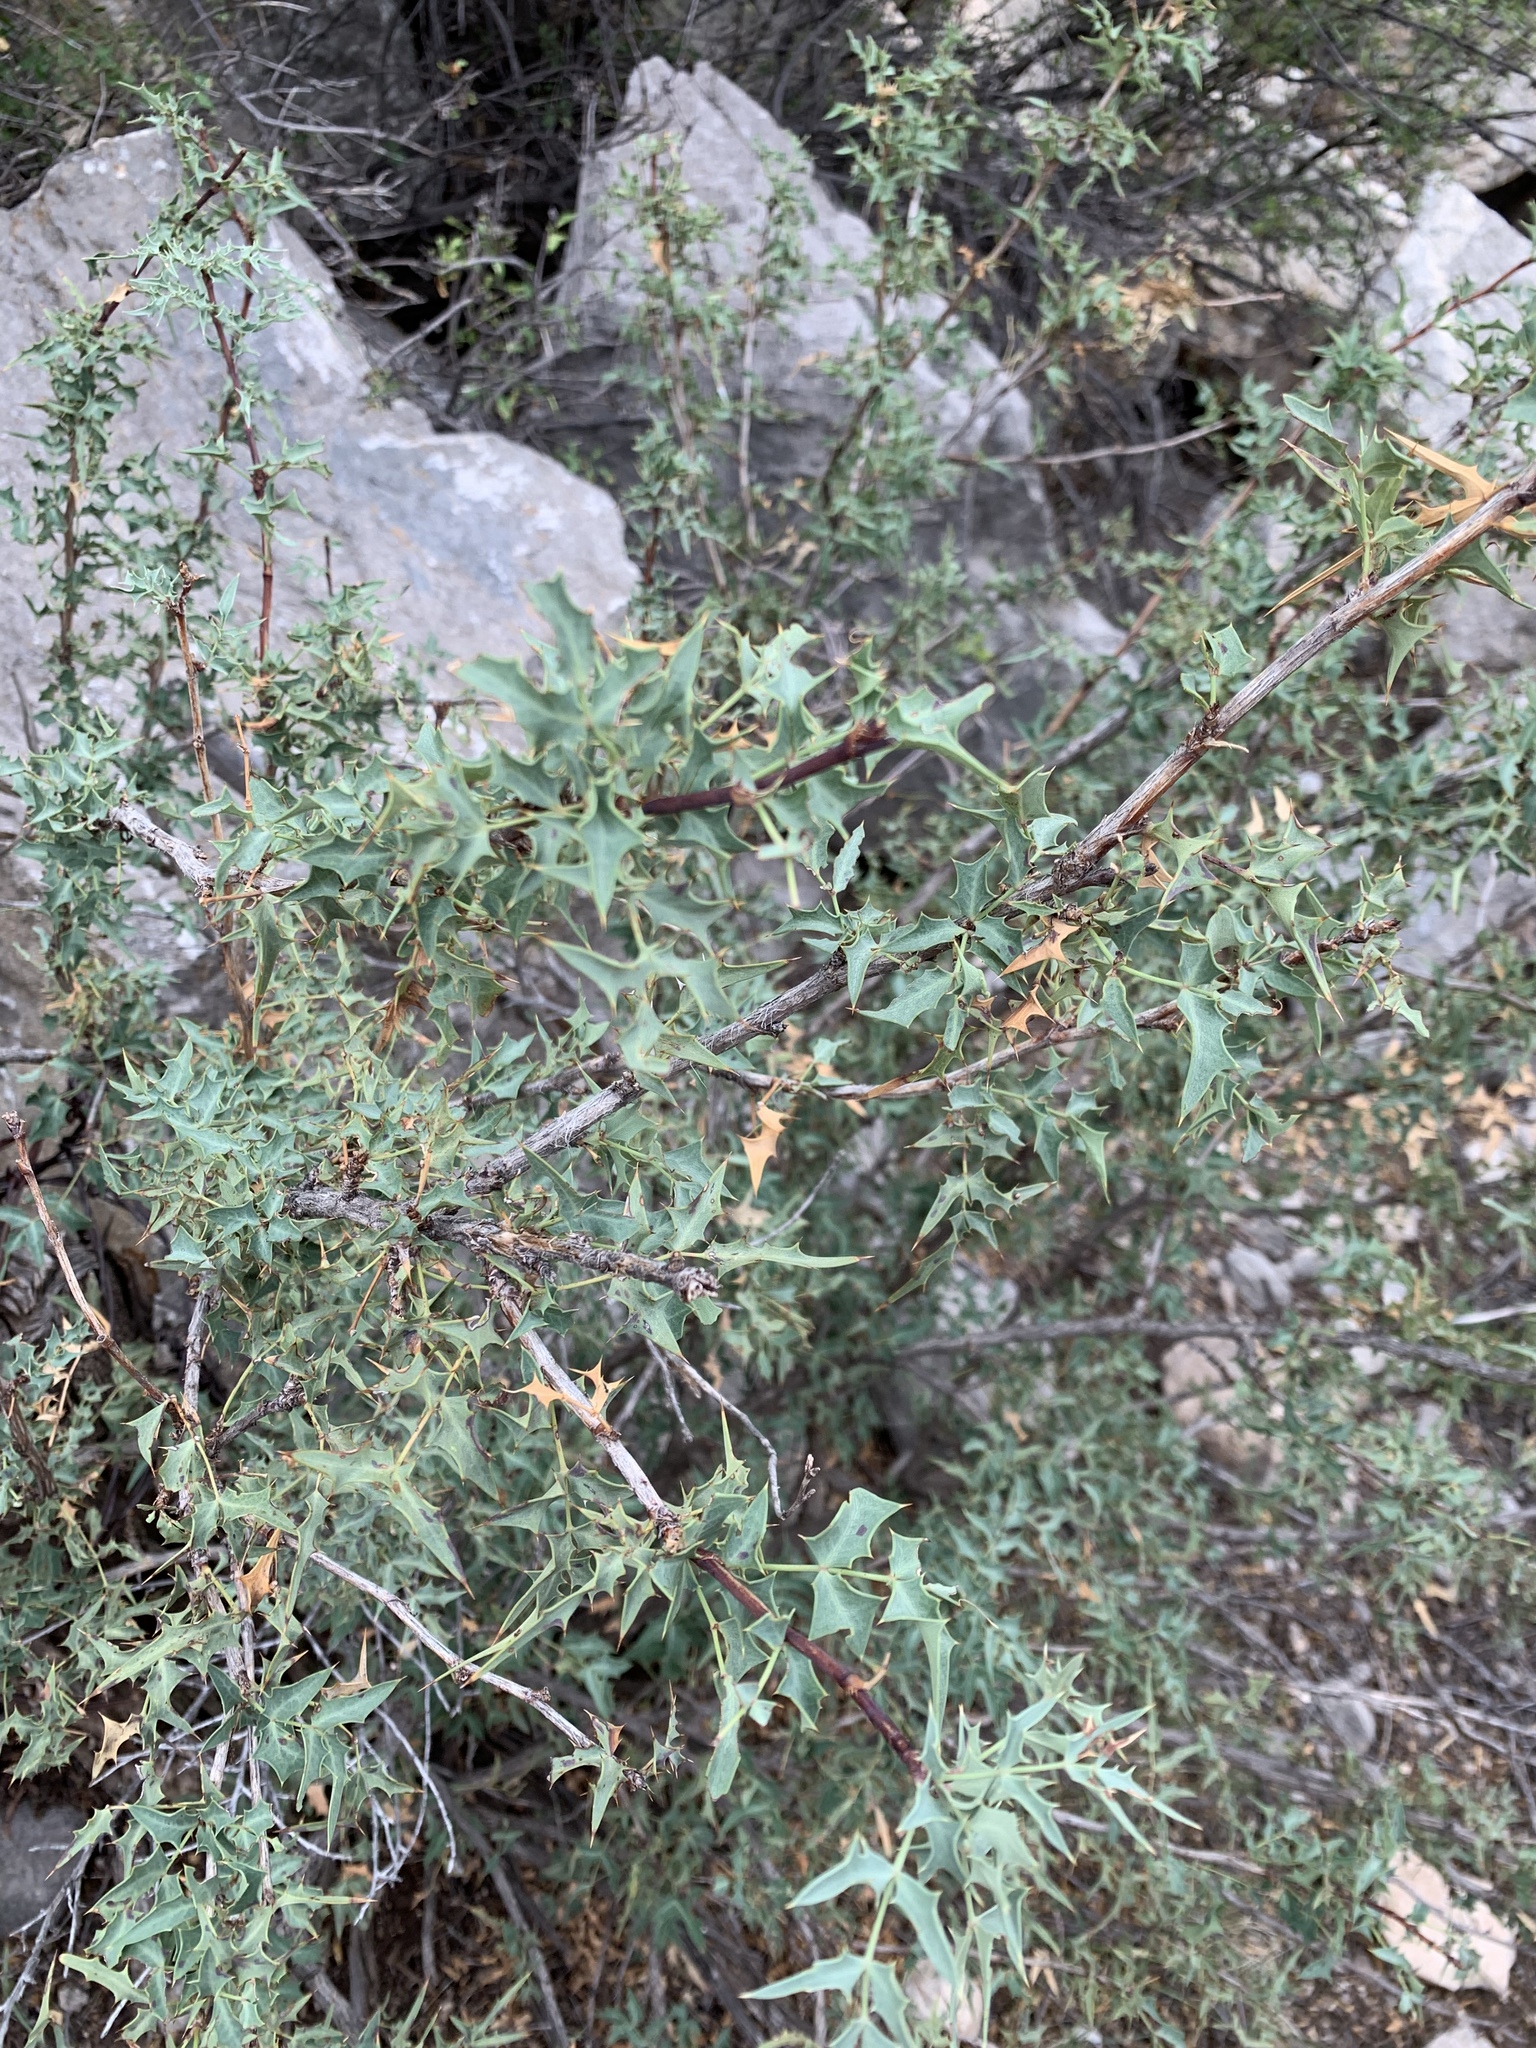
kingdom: Plantae
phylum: Tracheophyta
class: Magnoliopsida
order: Ranunculales
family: Berberidaceae
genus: Alloberberis
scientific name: Alloberberis haematocarpa
